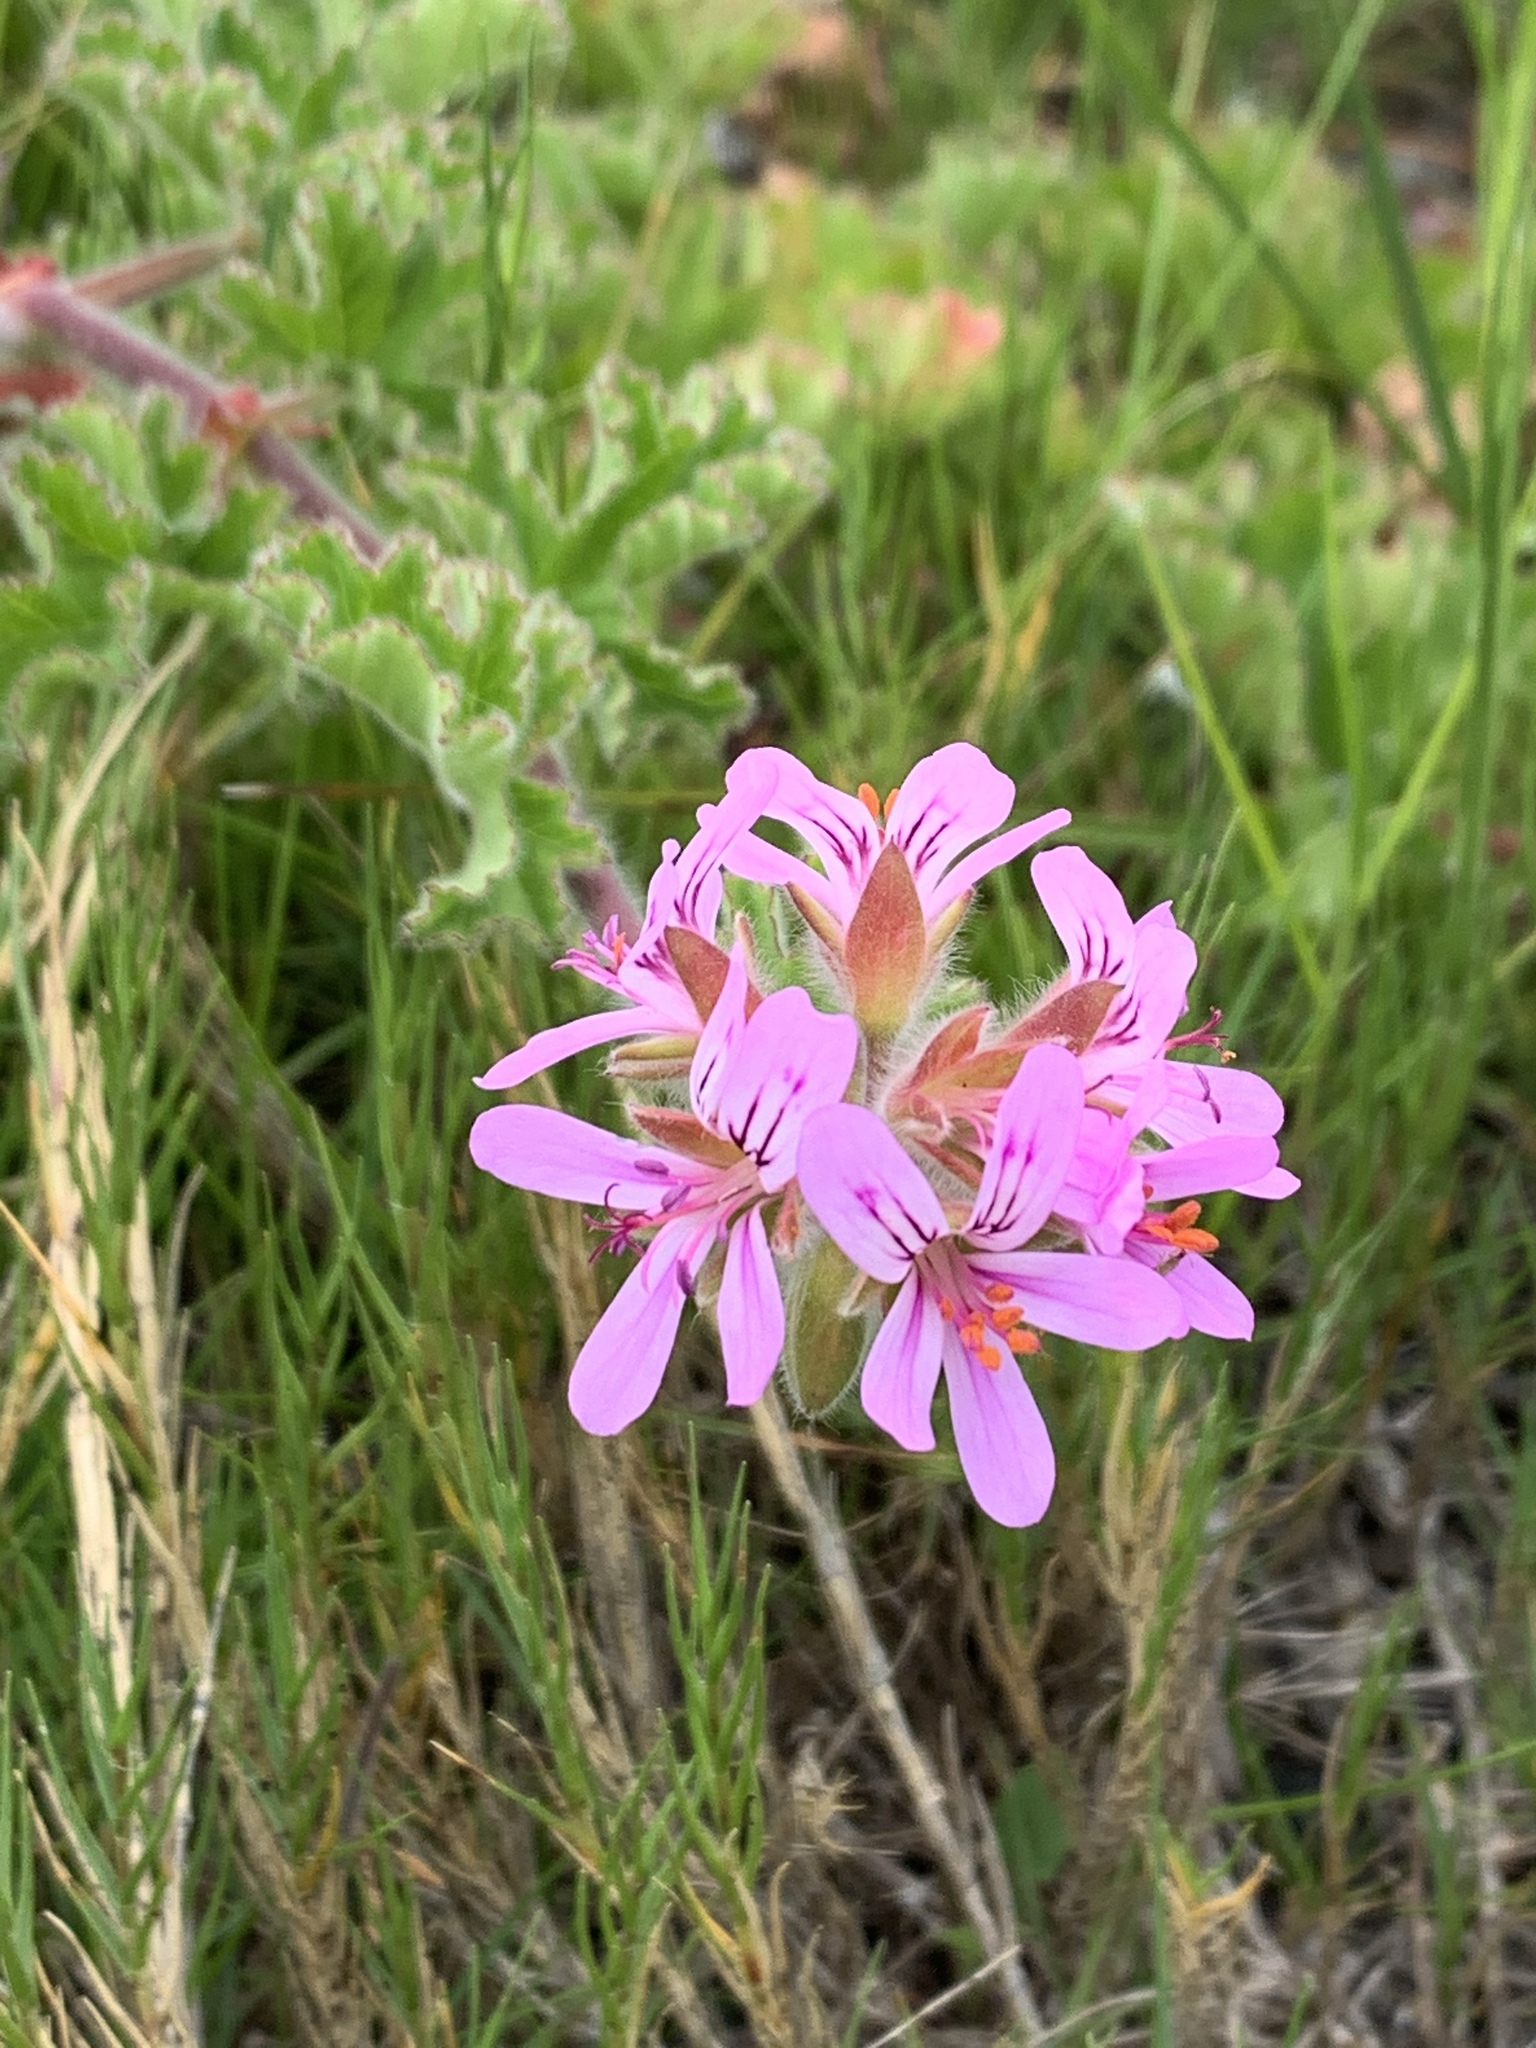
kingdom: Plantae
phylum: Tracheophyta
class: Magnoliopsida
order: Geraniales
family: Geraniaceae
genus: Pelargonium
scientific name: Pelargonium capitatum
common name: Rose scented geranium
